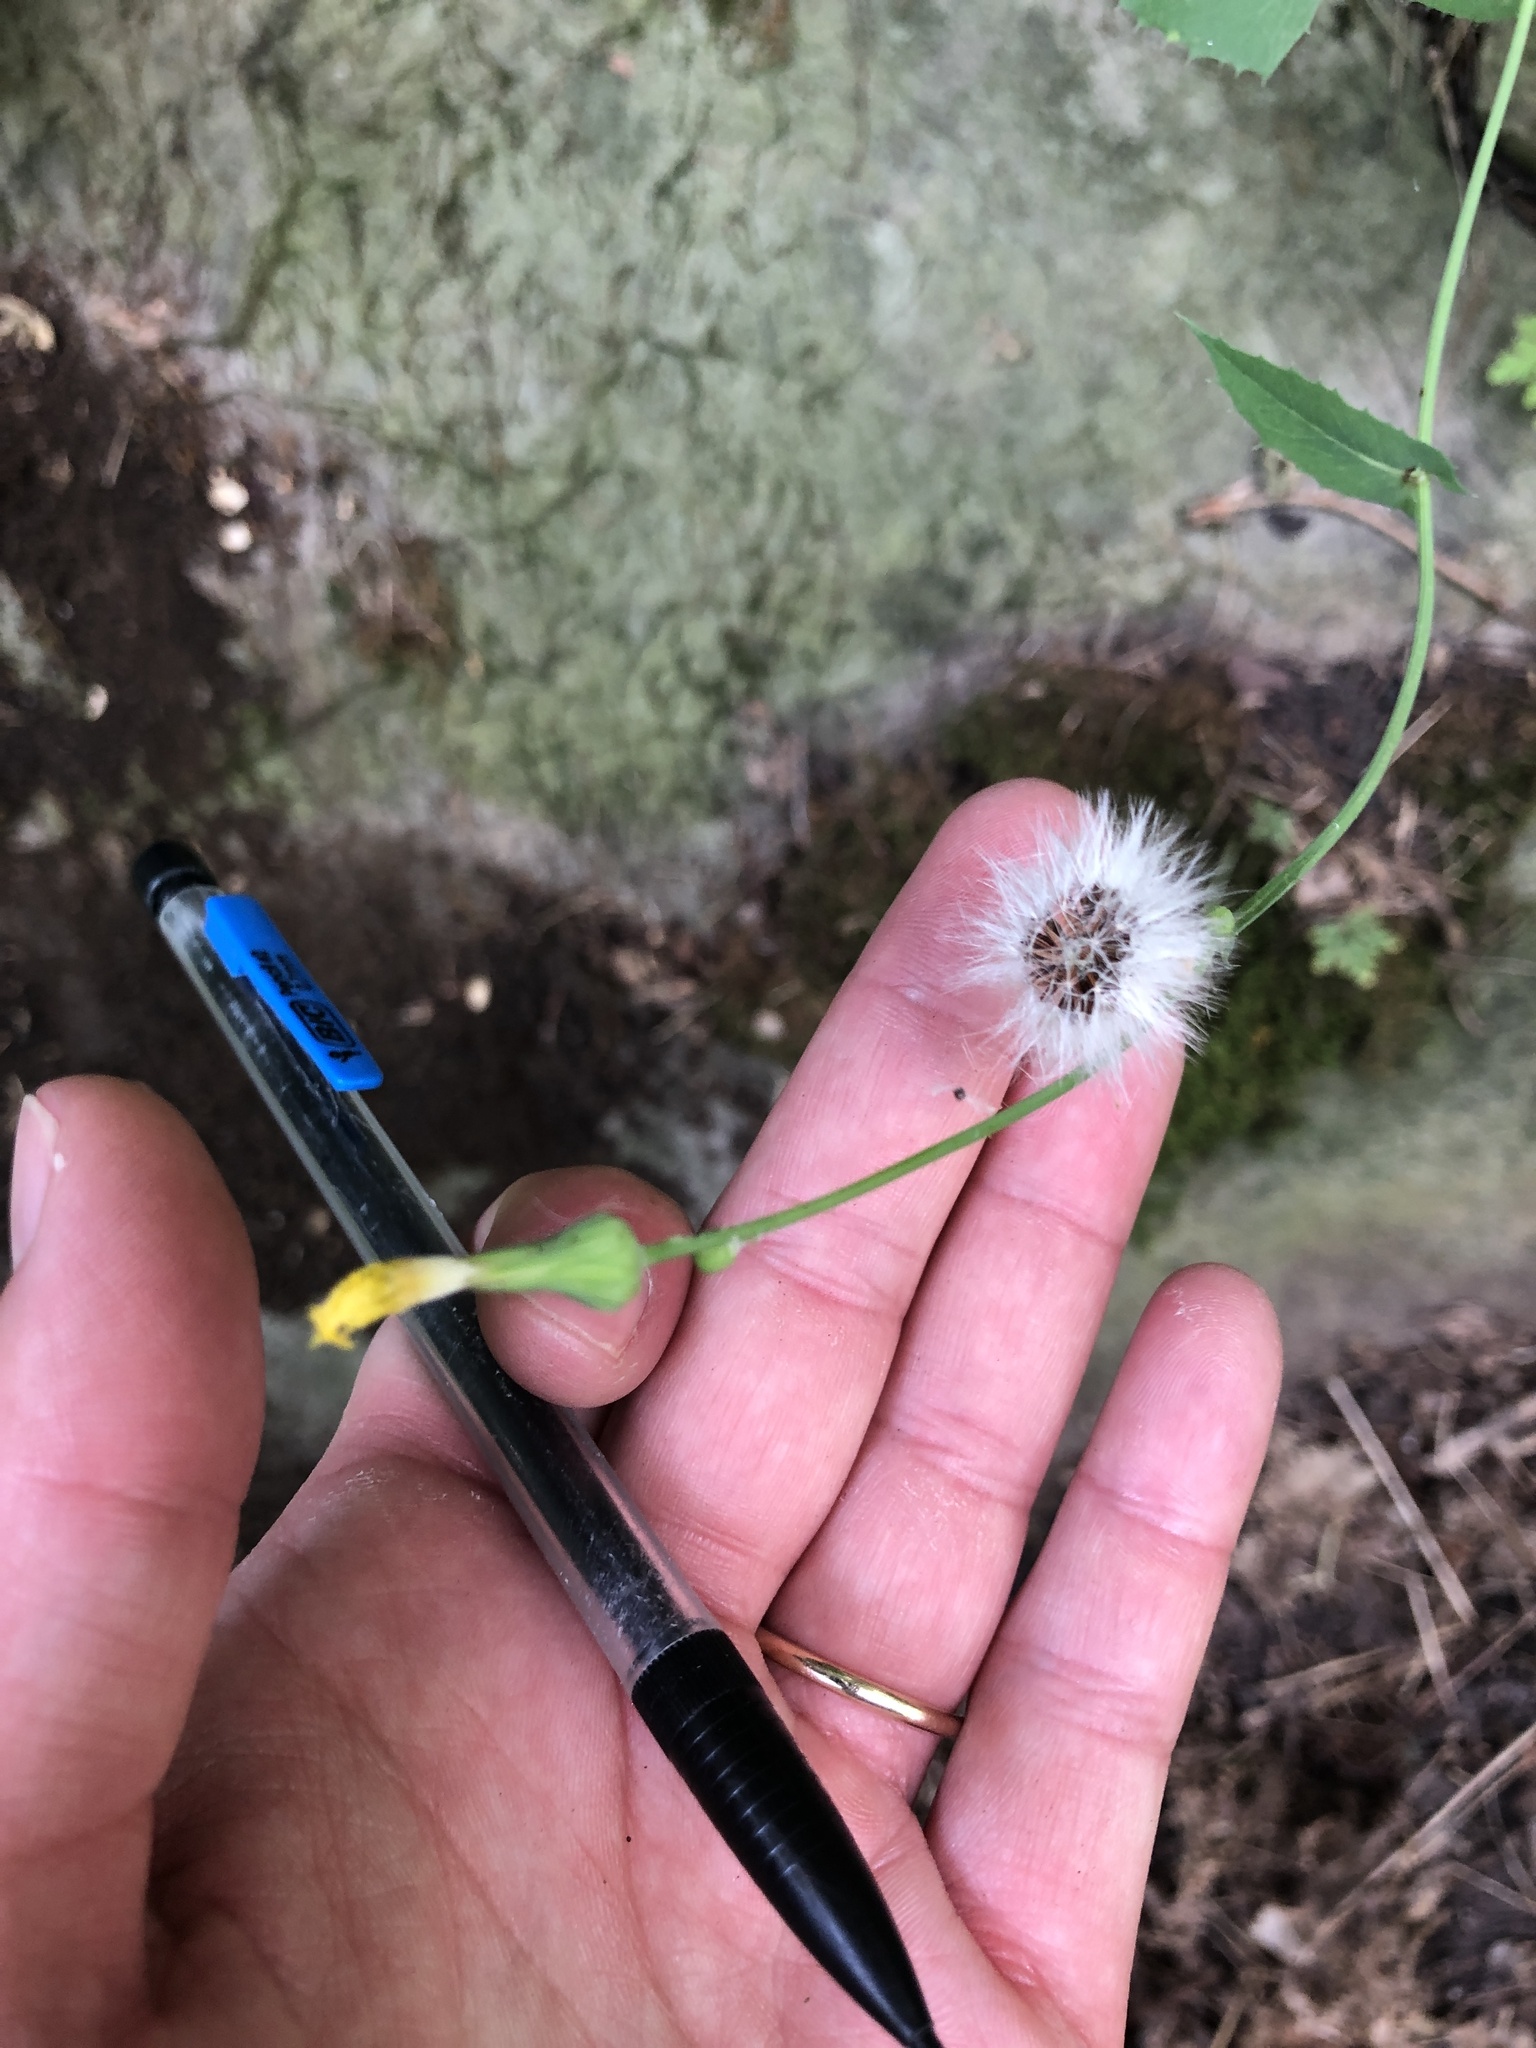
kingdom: Plantae
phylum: Tracheophyta
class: Magnoliopsida
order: Asterales
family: Asteraceae
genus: Sonchus
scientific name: Sonchus oleraceus
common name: Common sowthistle
